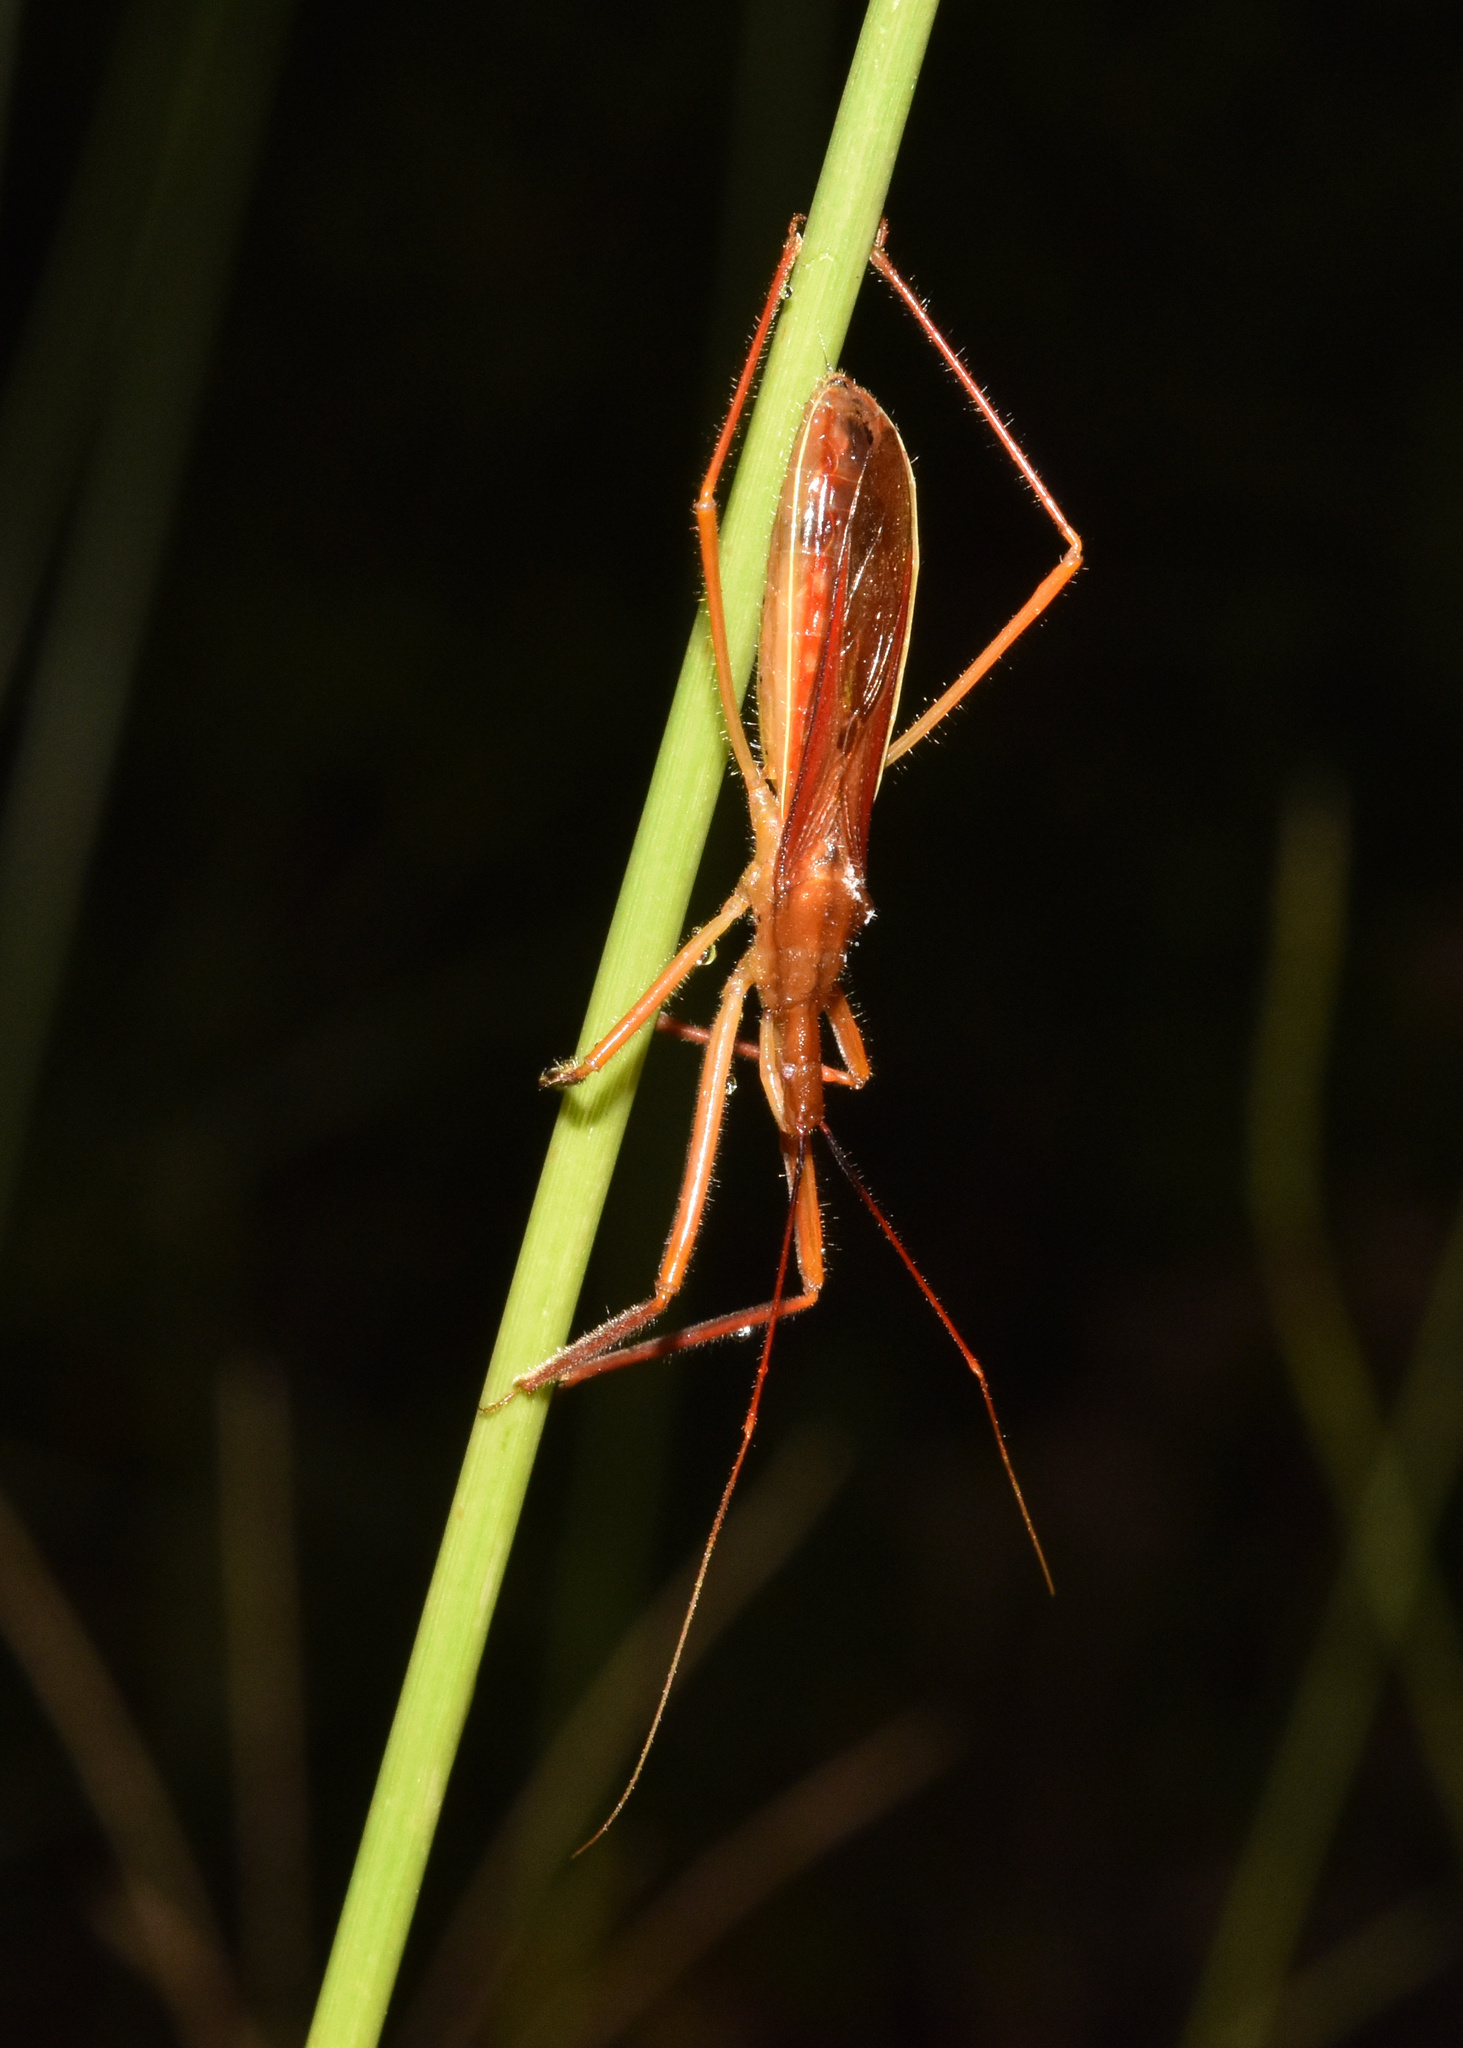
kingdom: Animalia
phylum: Arthropoda
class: Insecta
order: Hemiptera
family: Reduviidae
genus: Odontogonus
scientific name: Odontogonus pudens
